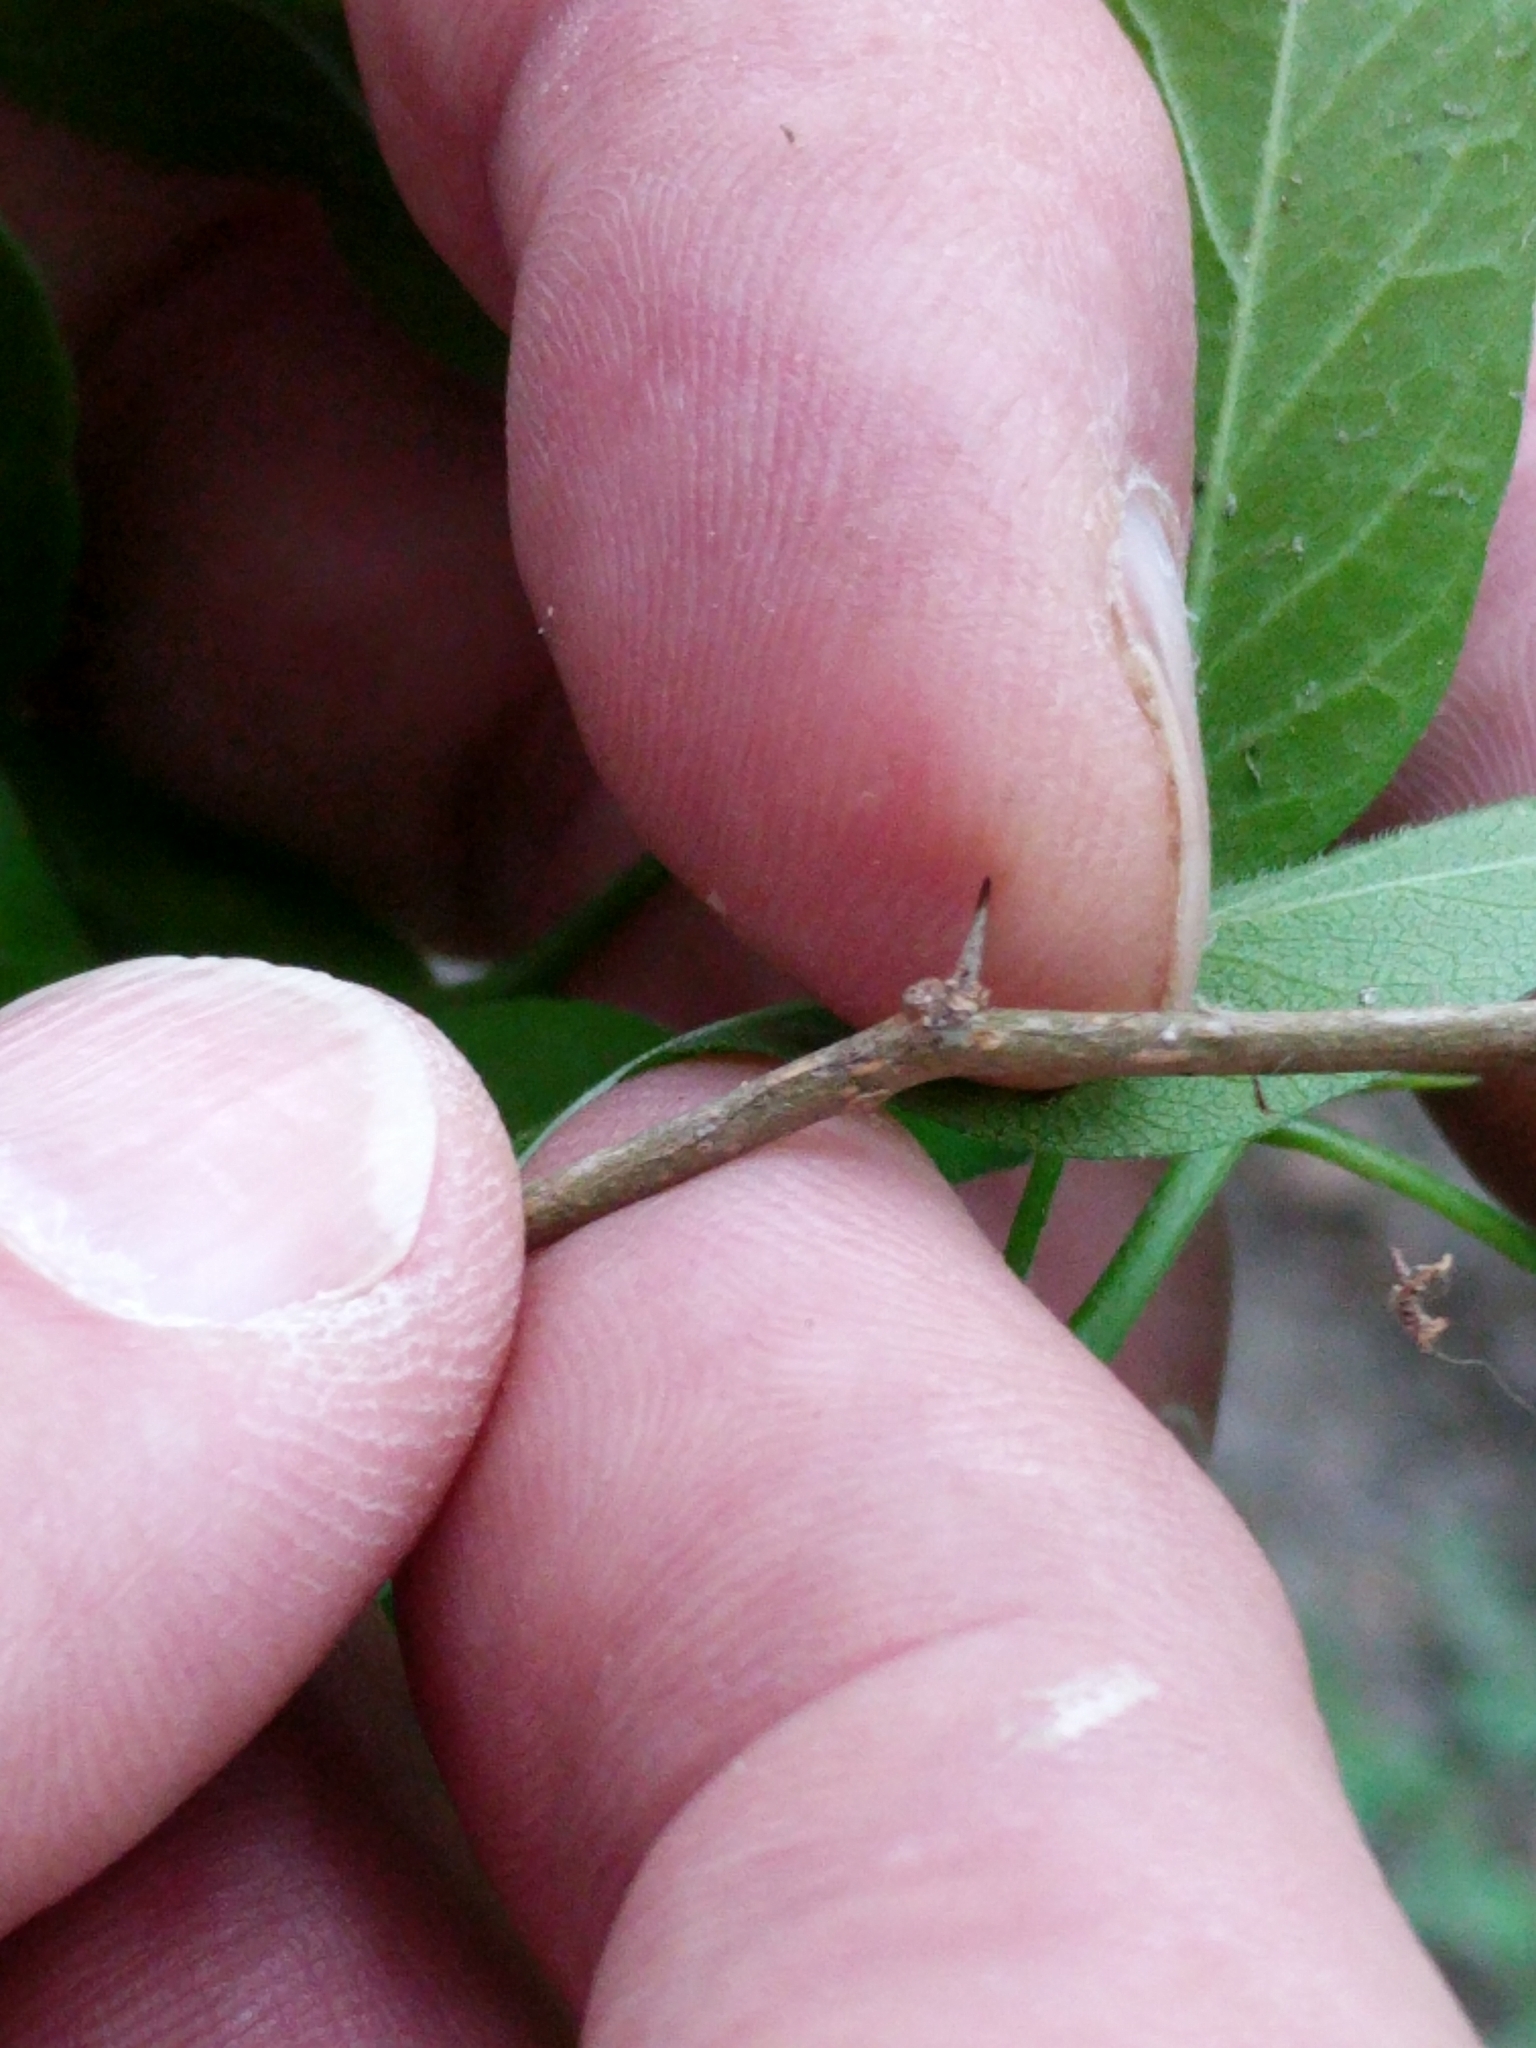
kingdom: Plantae
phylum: Tracheophyta
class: Magnoliopsida
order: Rosales
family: Moraceae
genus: Maclura
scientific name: Maclura pomifera
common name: Osage-orange
